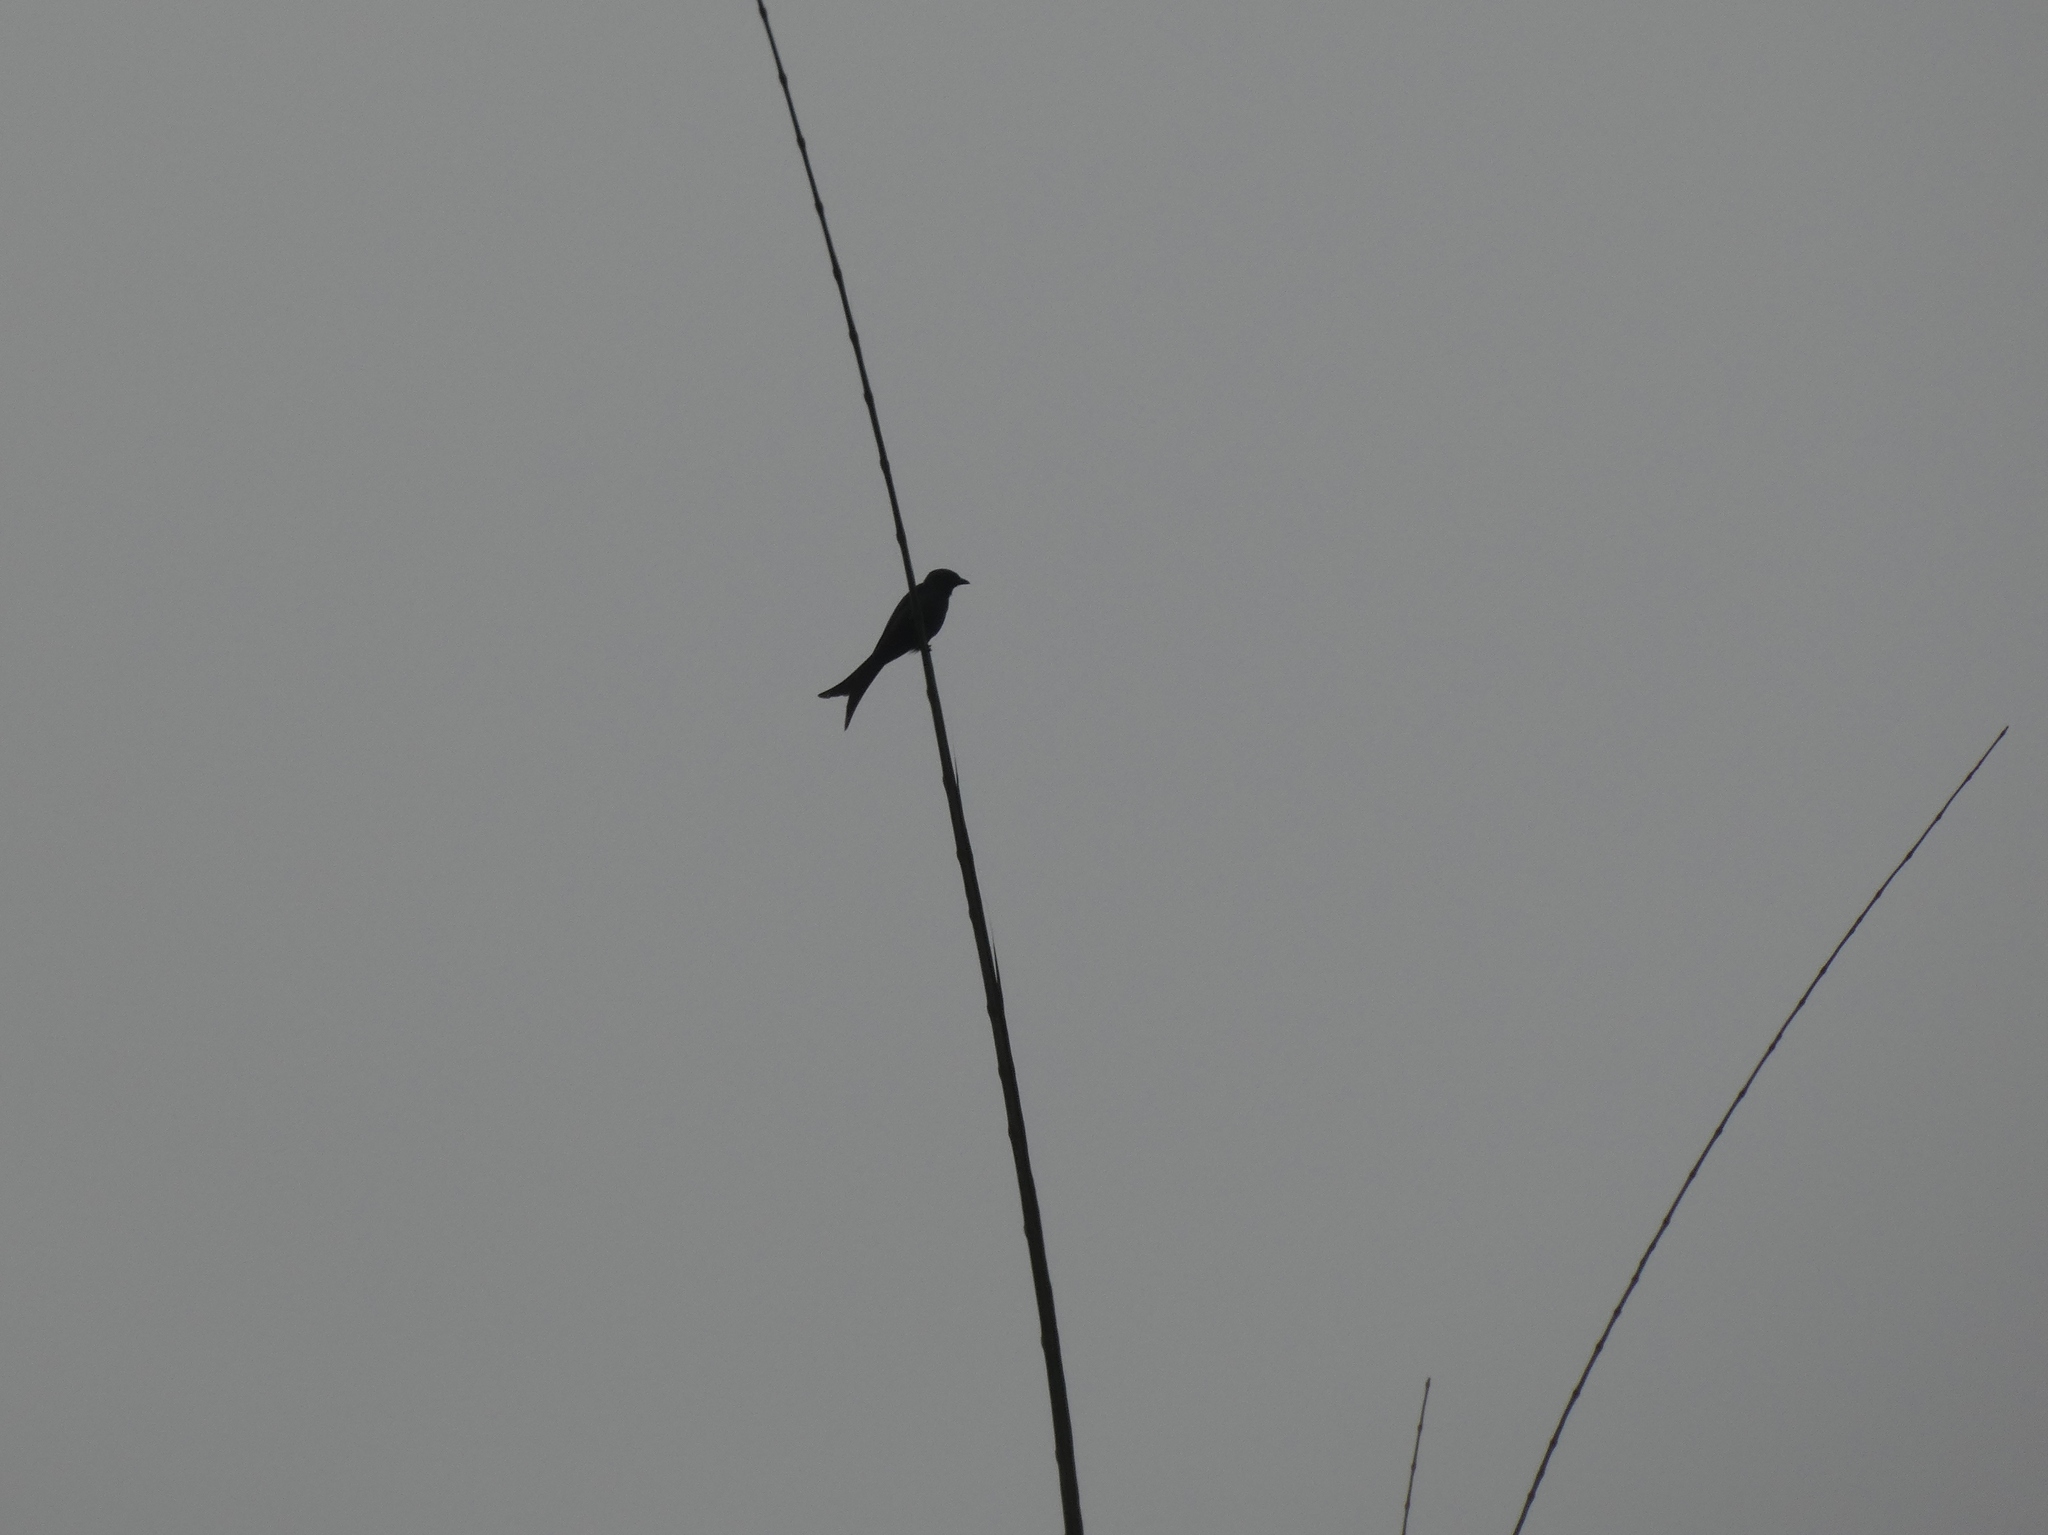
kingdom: Animalia
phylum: Chordata
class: Aves
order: Passeriformes
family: Dicruridae
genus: Dicrurus
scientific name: Dicrurus leucophaeus
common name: Ashy drongo
